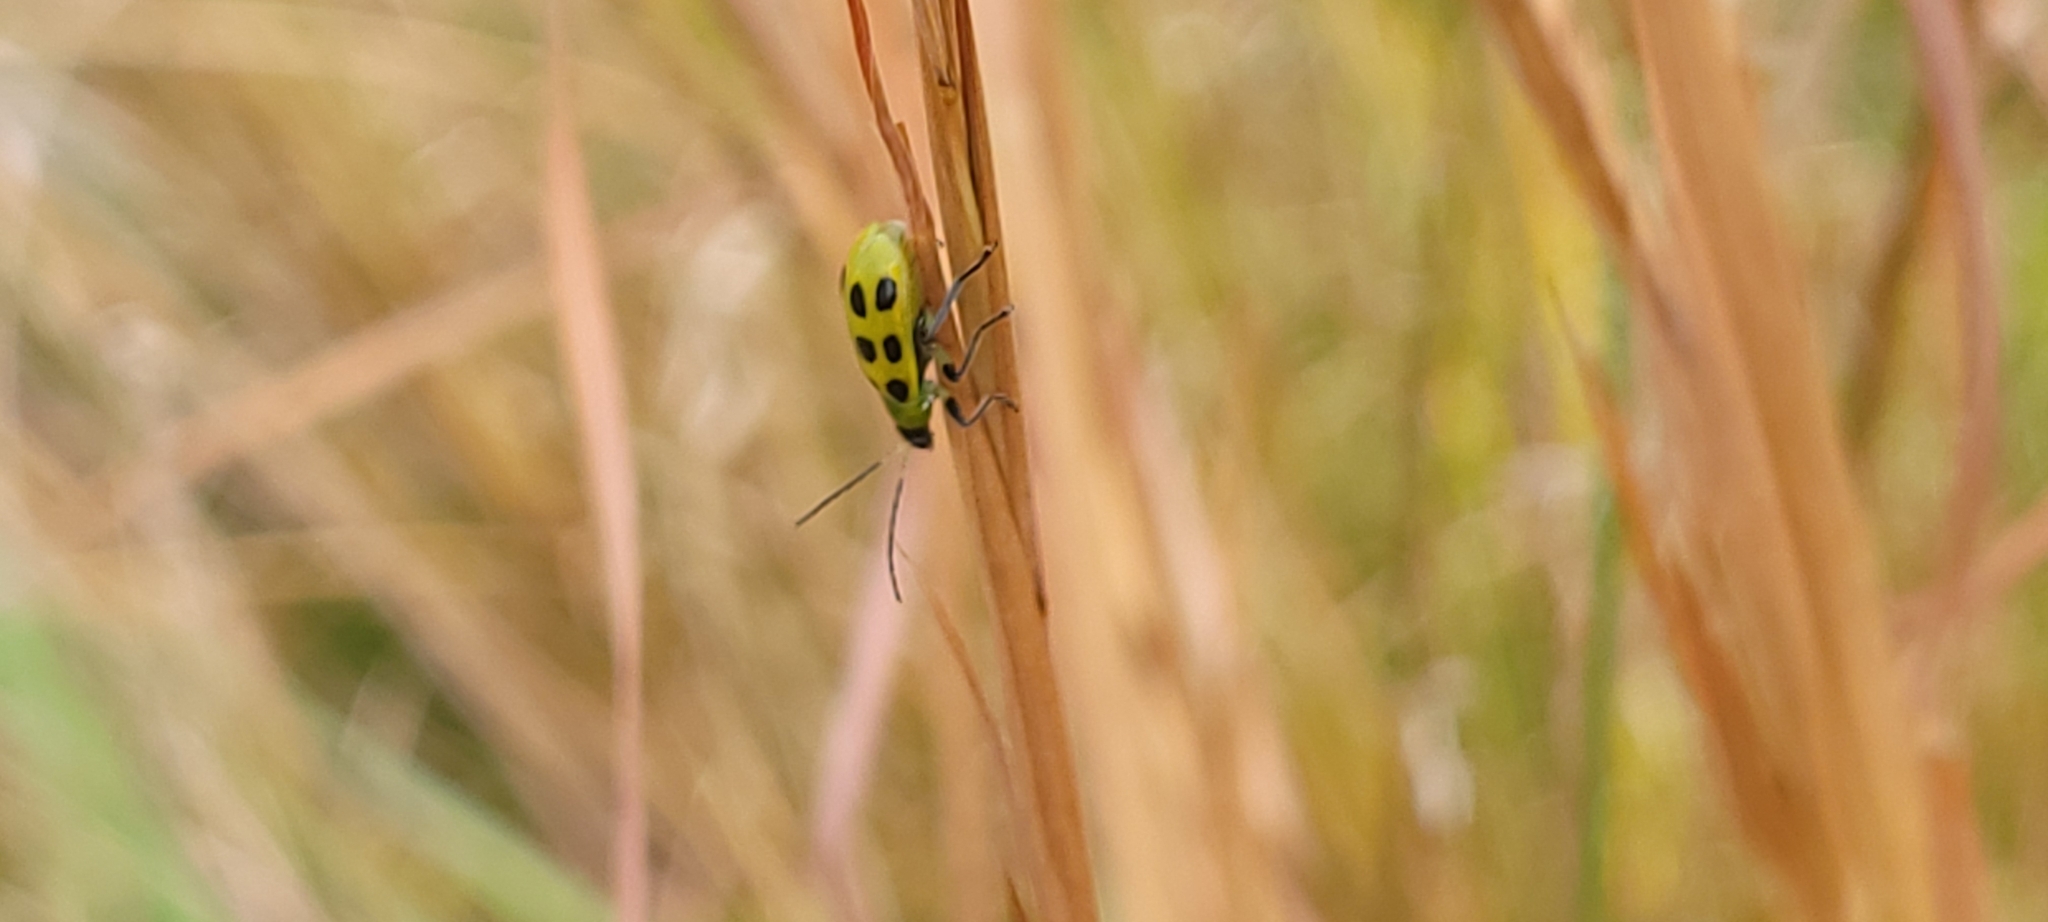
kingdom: Animalia
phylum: Arthropoda
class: Insecta
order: Coleoptera
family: Chrysomelidae
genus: Diabrotica
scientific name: Diabrotica undecimpunctata
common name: Spotted cucumber beetle
